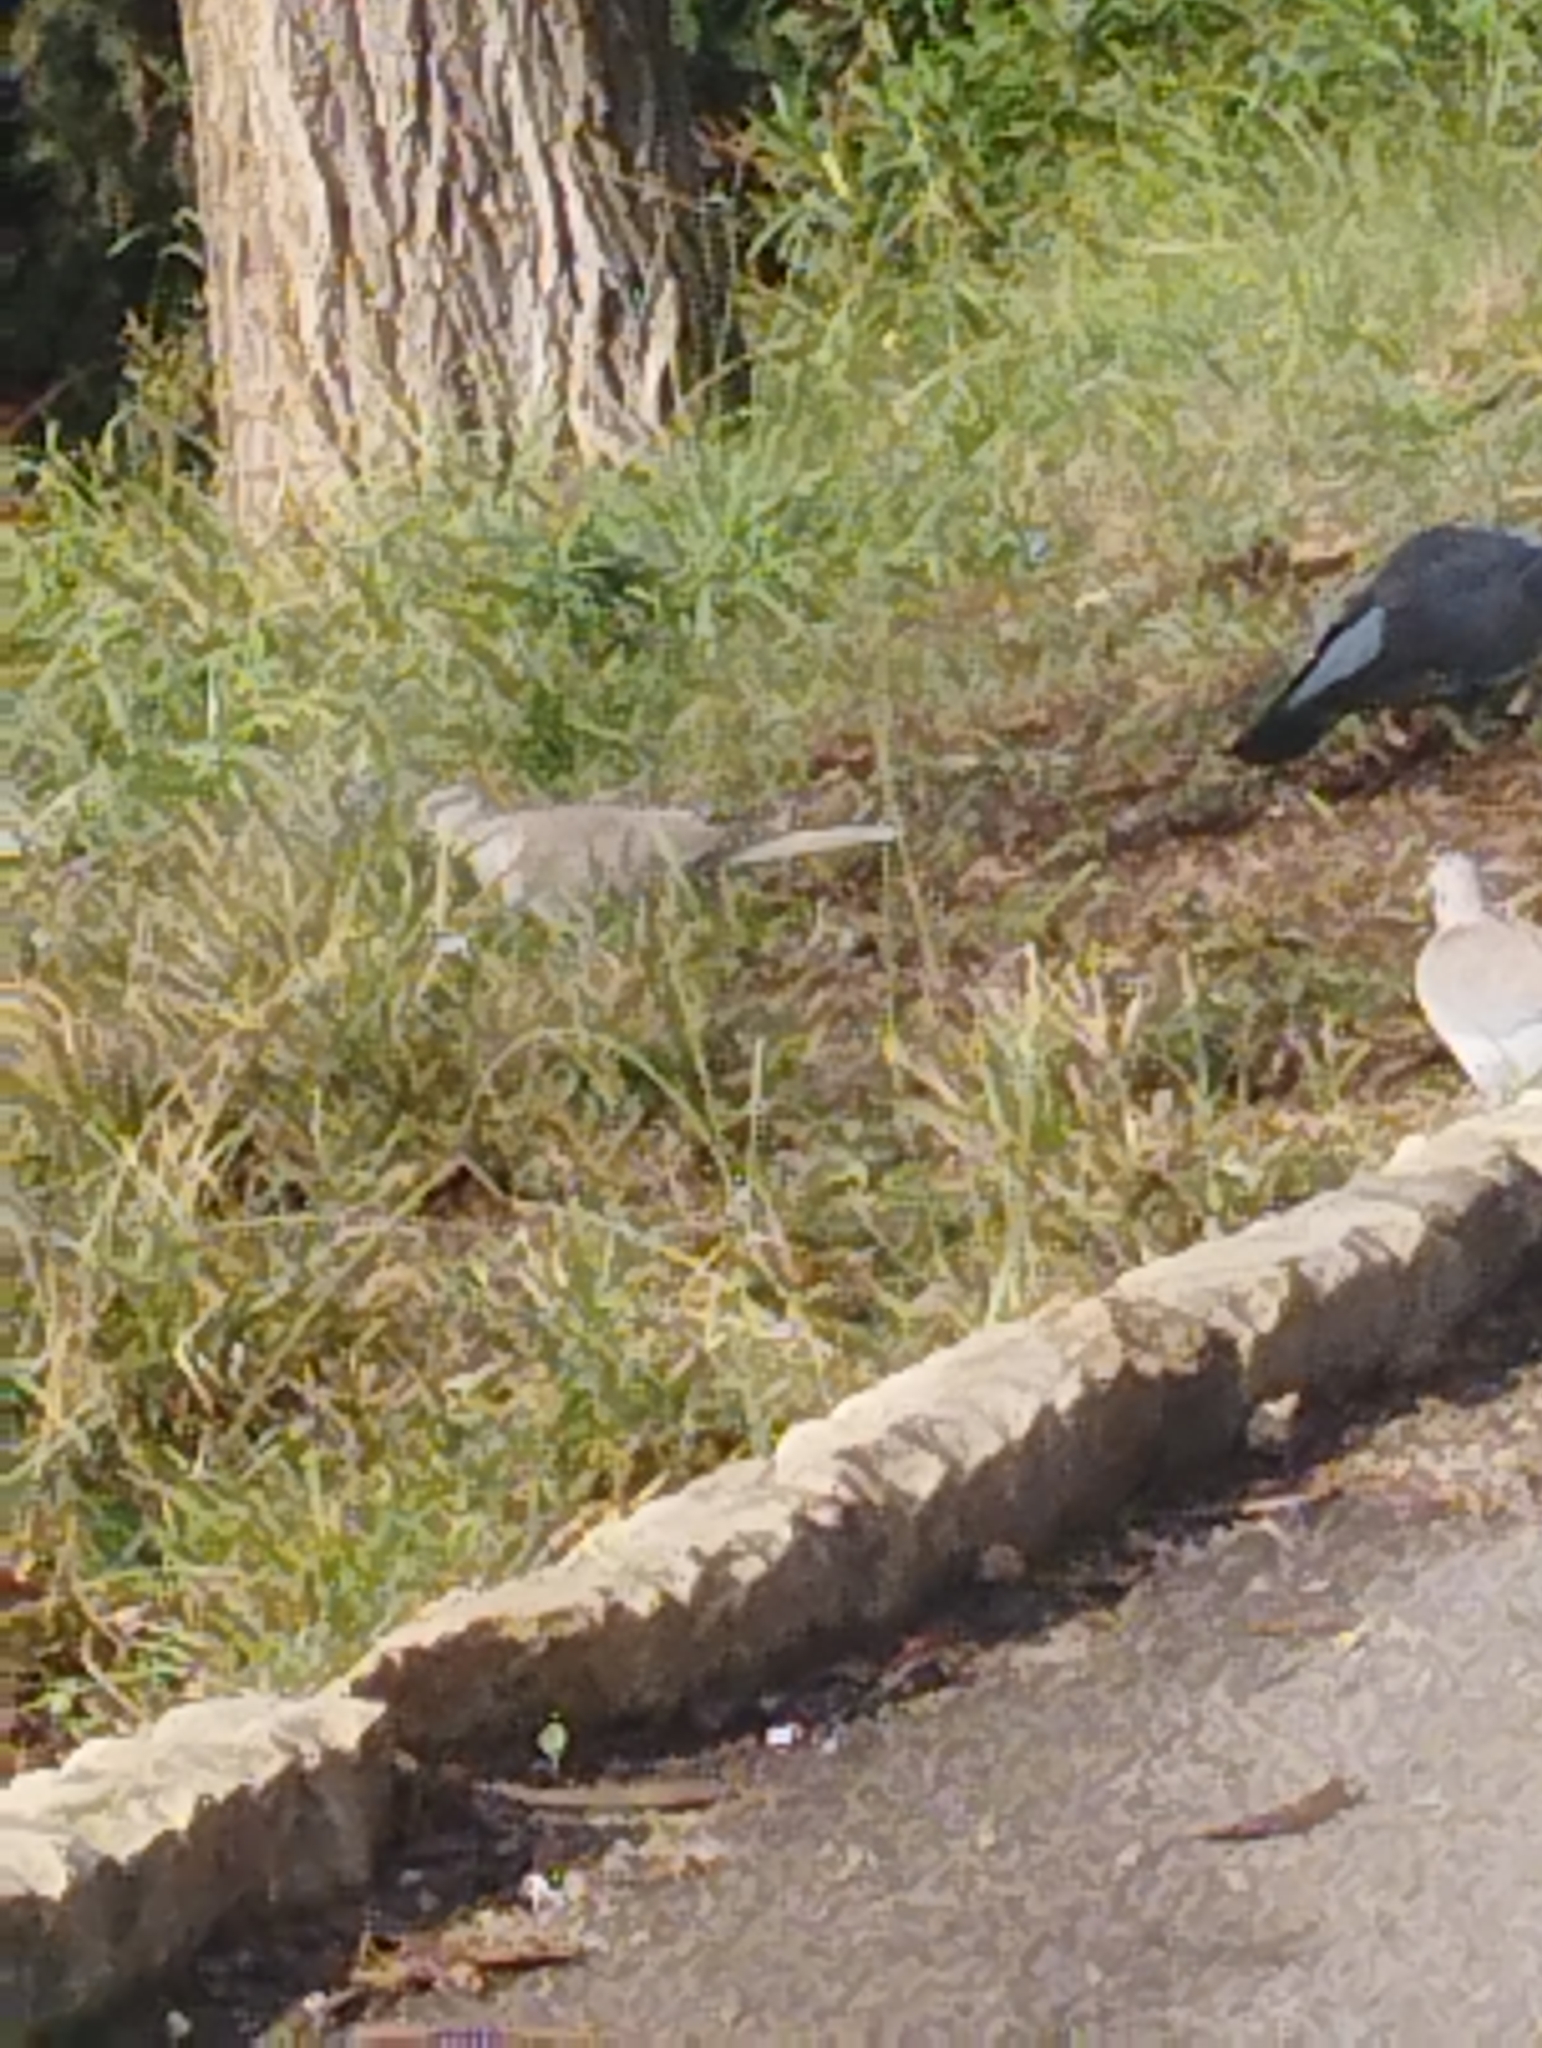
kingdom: Animalia
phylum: Chordata
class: Aves
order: Columbiformes
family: Columbidae
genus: Streptopelia
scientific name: Streptopelia decaocto
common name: Eurasian collared dove
